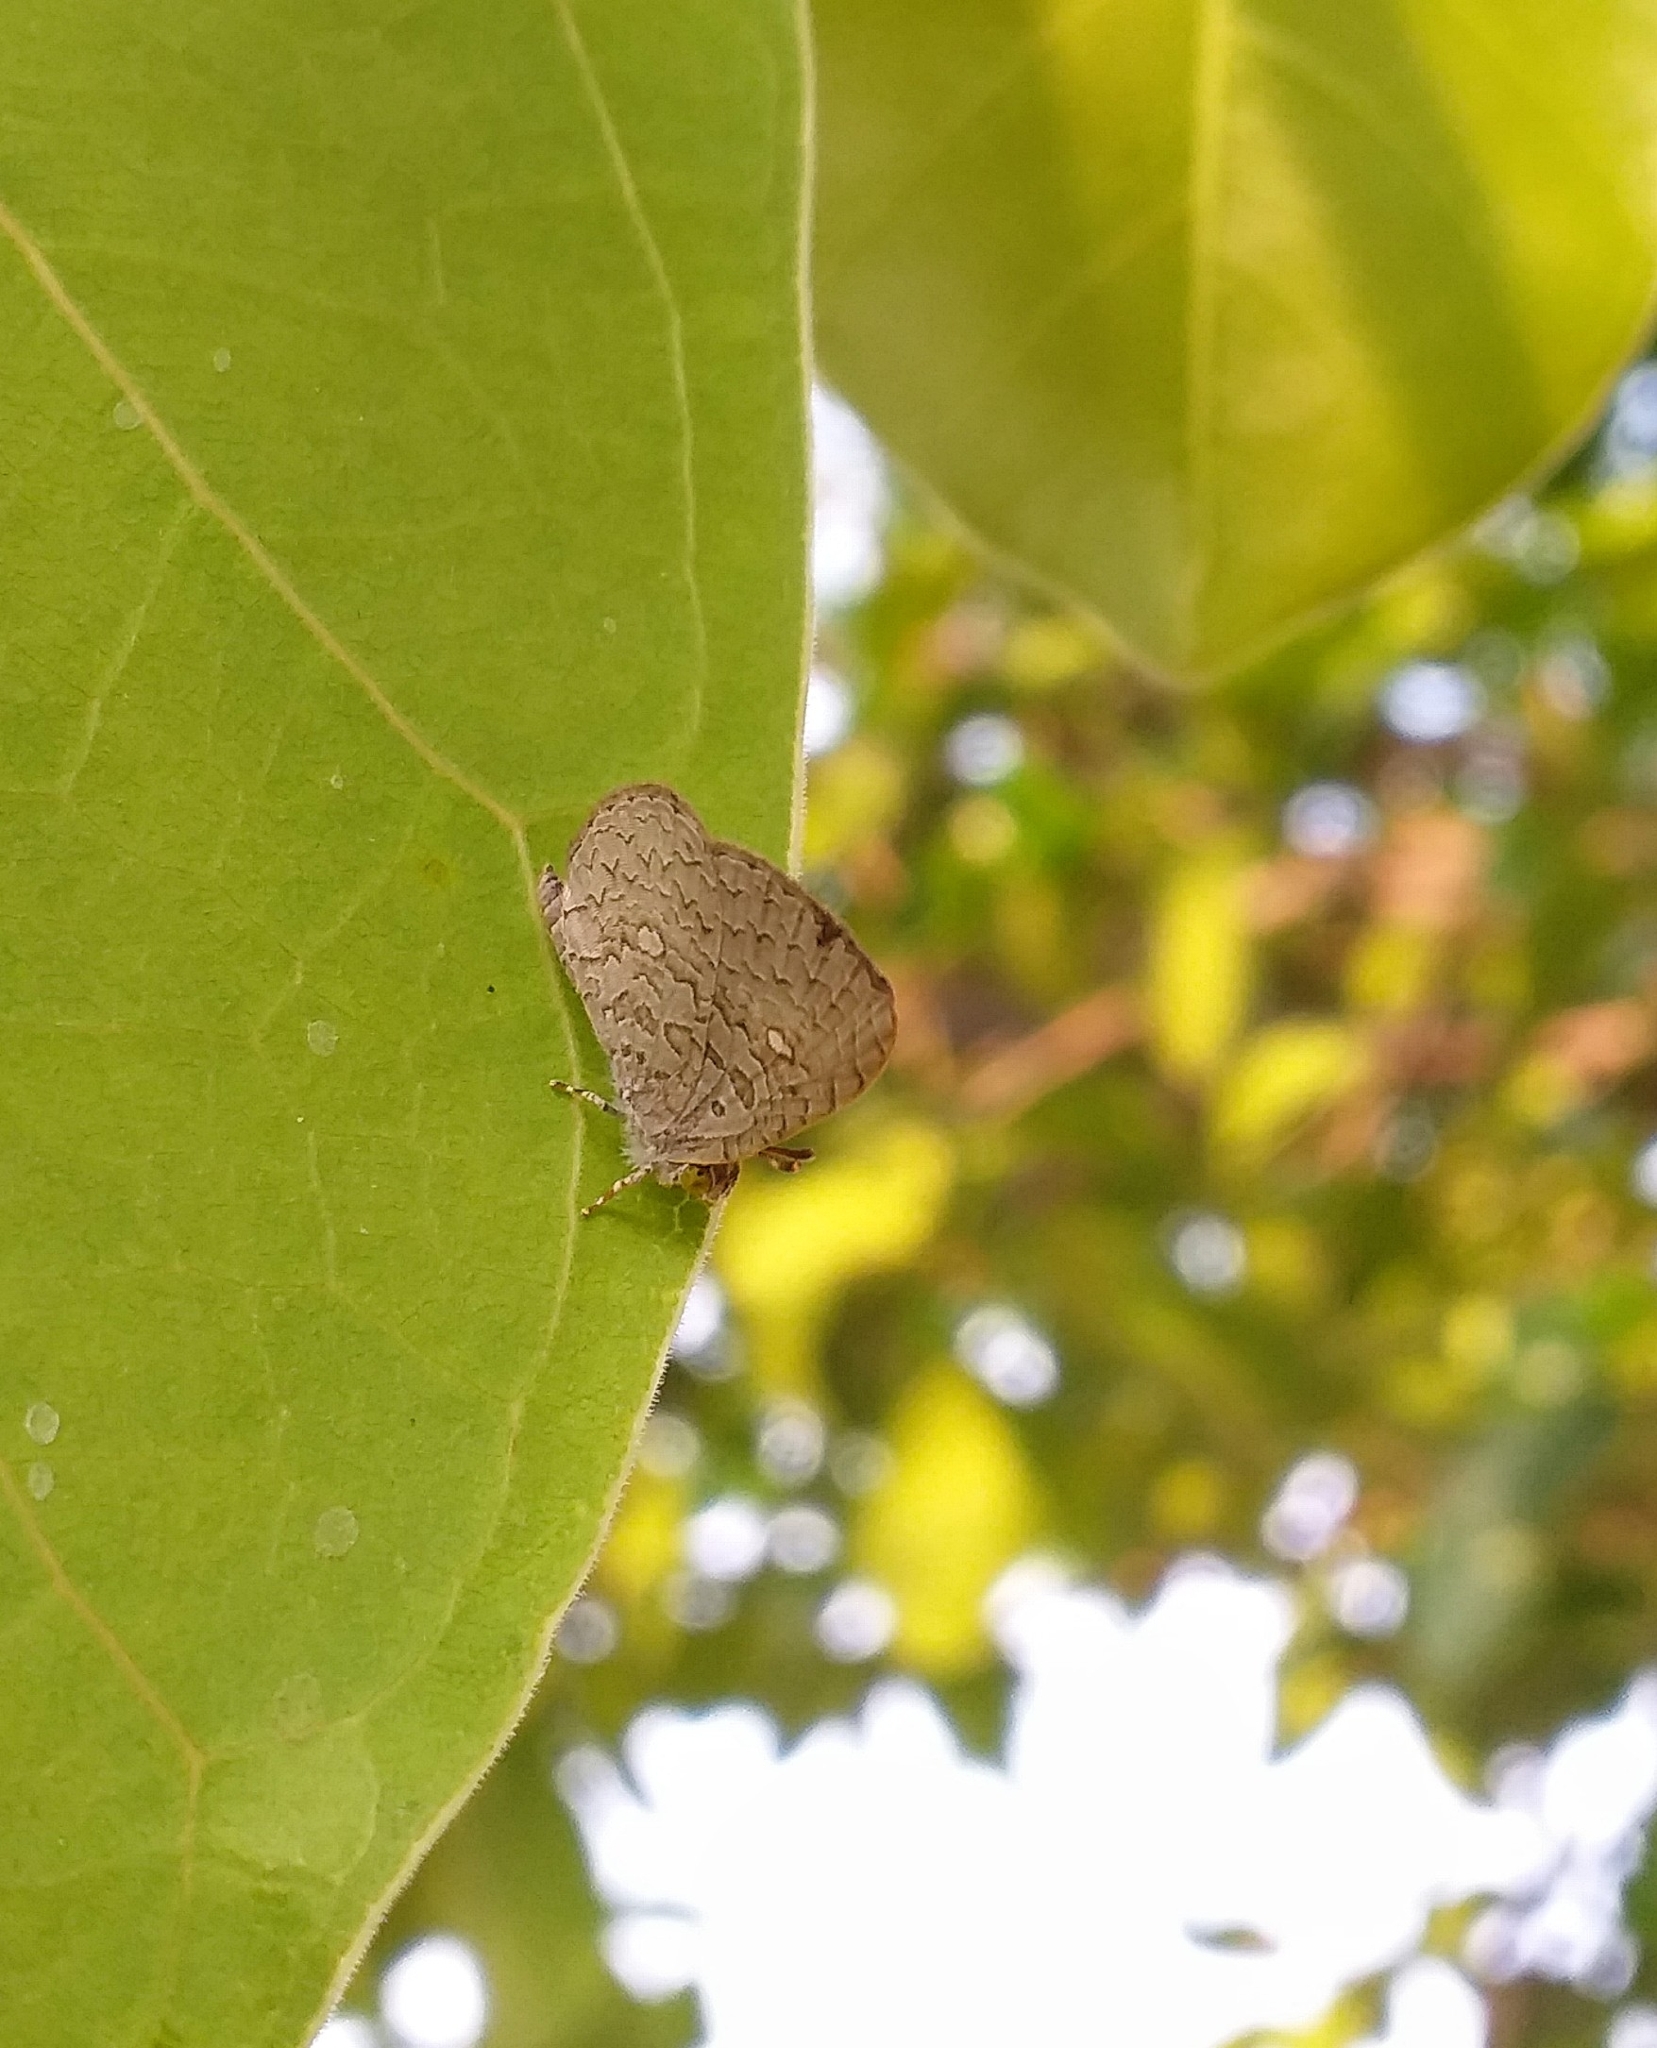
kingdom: Animalia
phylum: Arthropoda
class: Insecta
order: Lepidoptera
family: Lycaenidae
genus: Spalgis
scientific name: Spalgis epius
